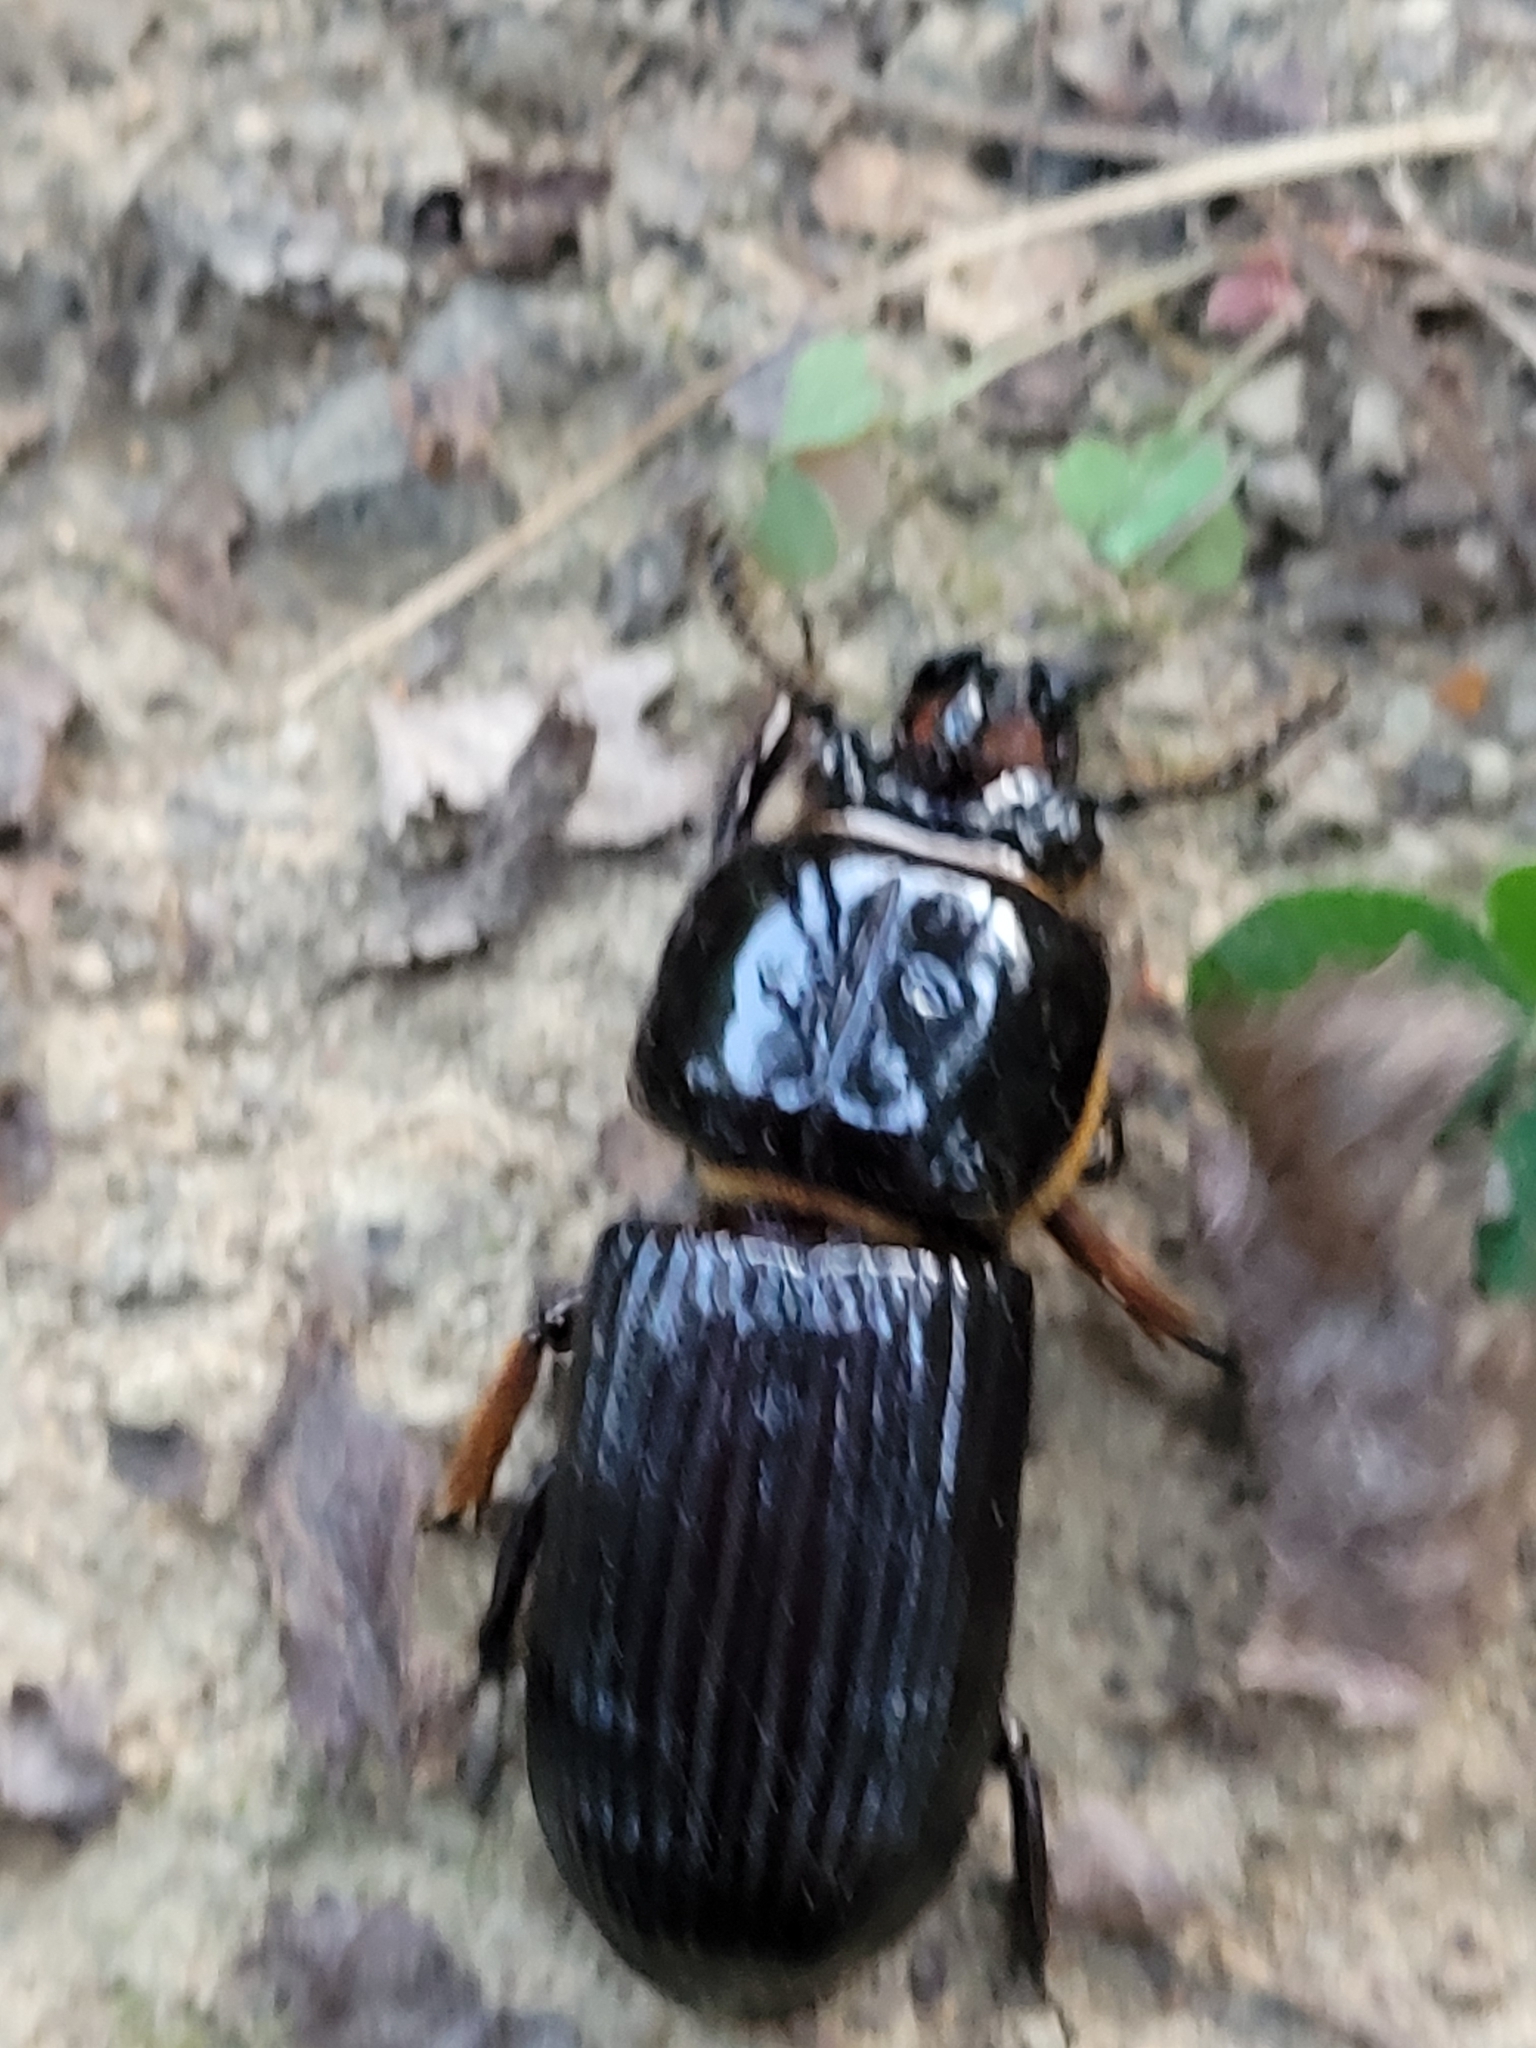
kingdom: Animalia
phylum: Arthropoda
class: Insecta
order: Coleoptera
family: Passalidae
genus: Odontotaenius
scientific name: Odontotaenius disjunctus
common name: Patent leather beetle
